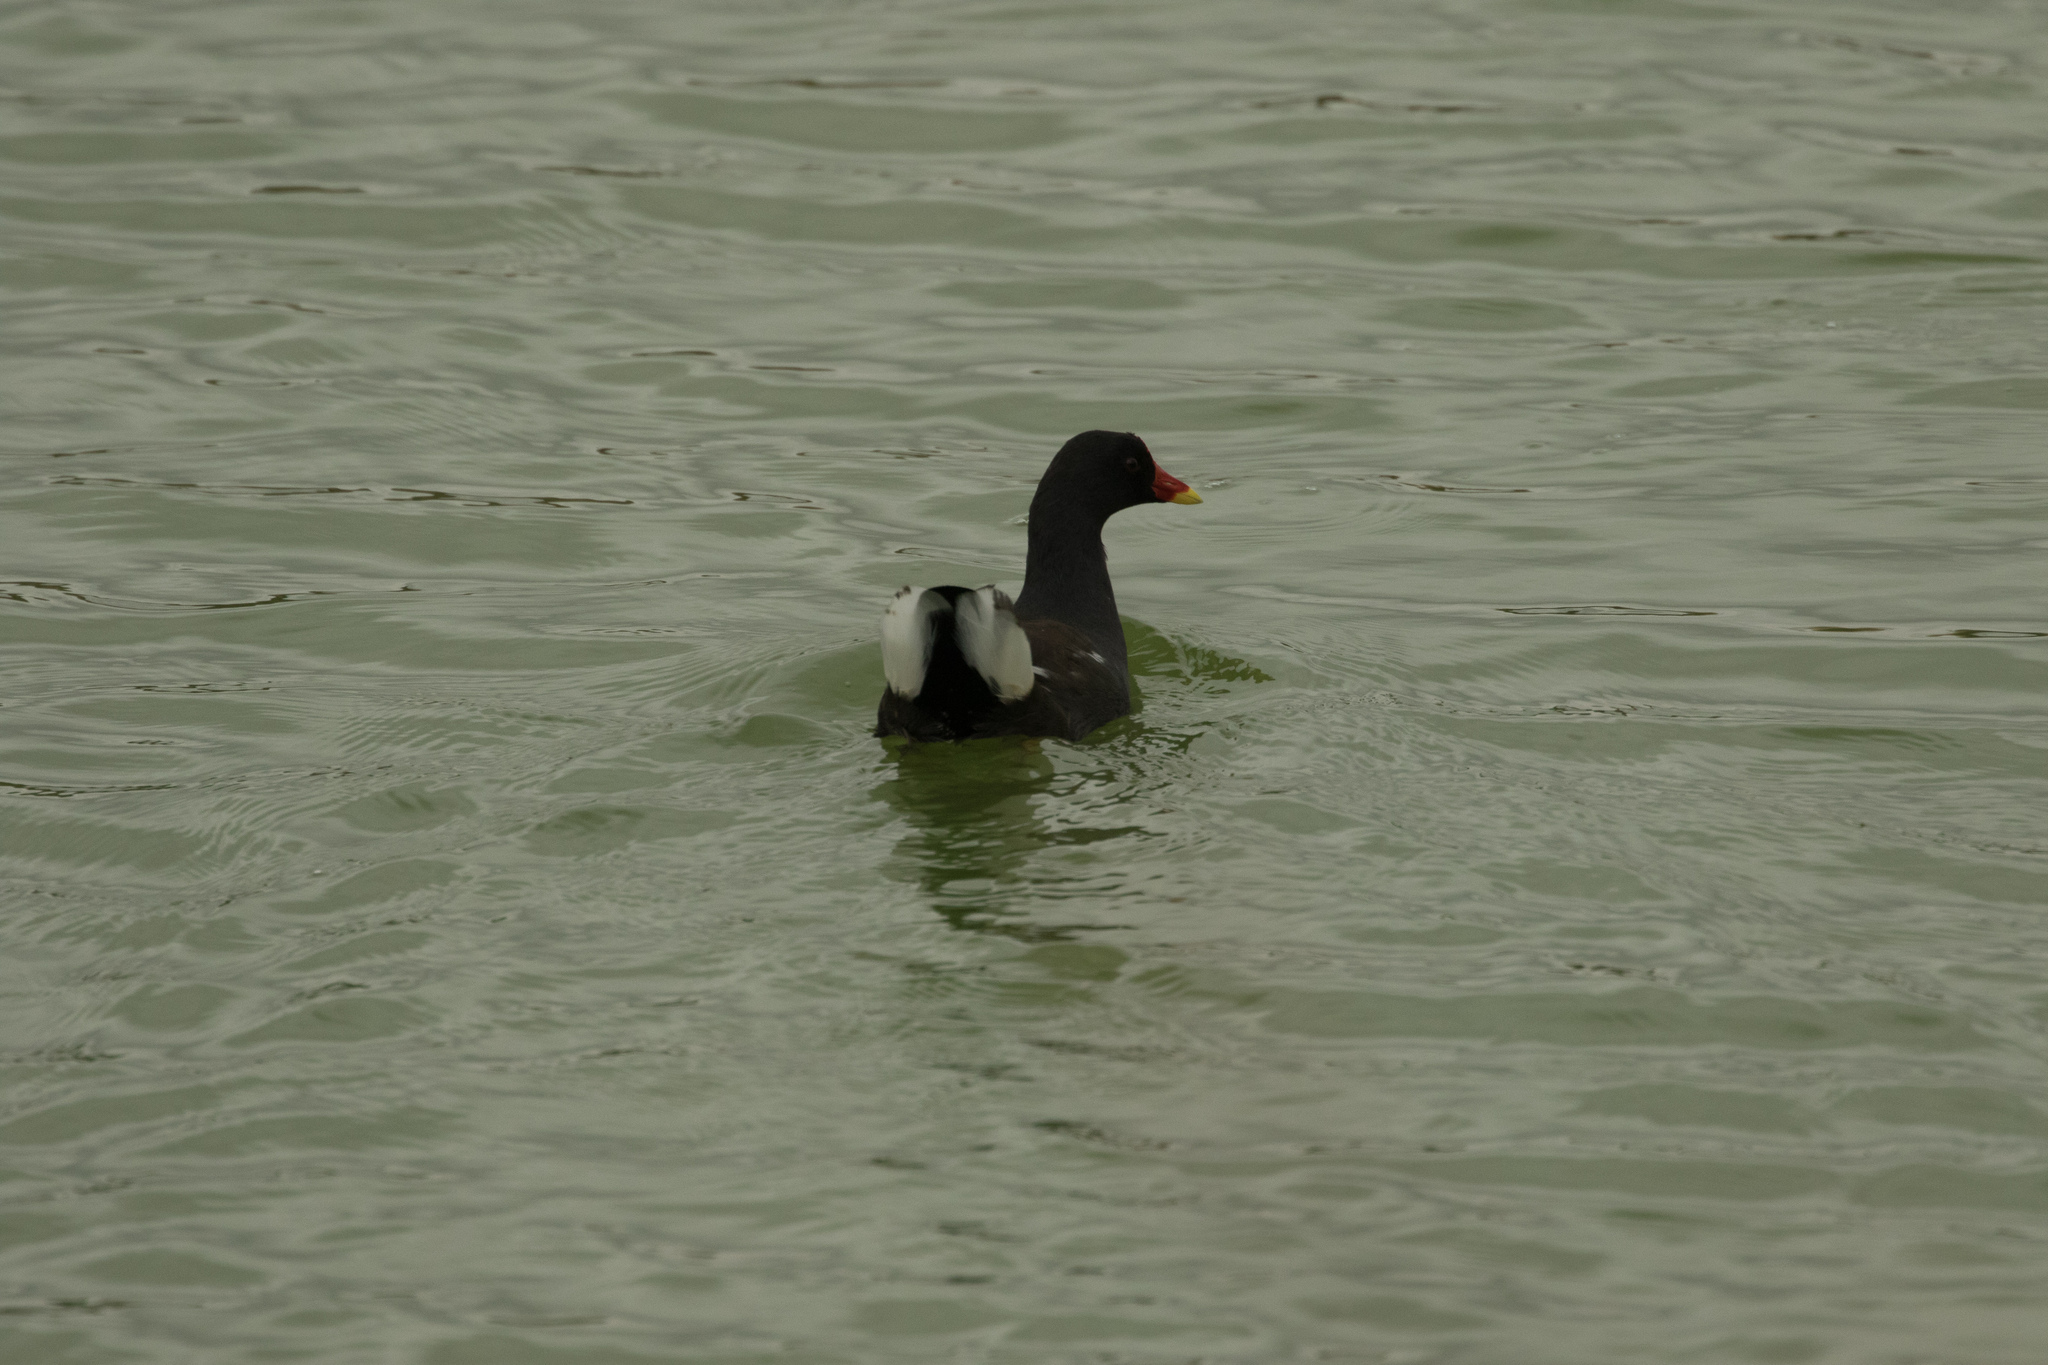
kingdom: Animalia
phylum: Chordata
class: Aves
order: Gruiformes
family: Rallidae
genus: Gallinula
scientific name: Gallinula chloropus
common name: Common moorhen
